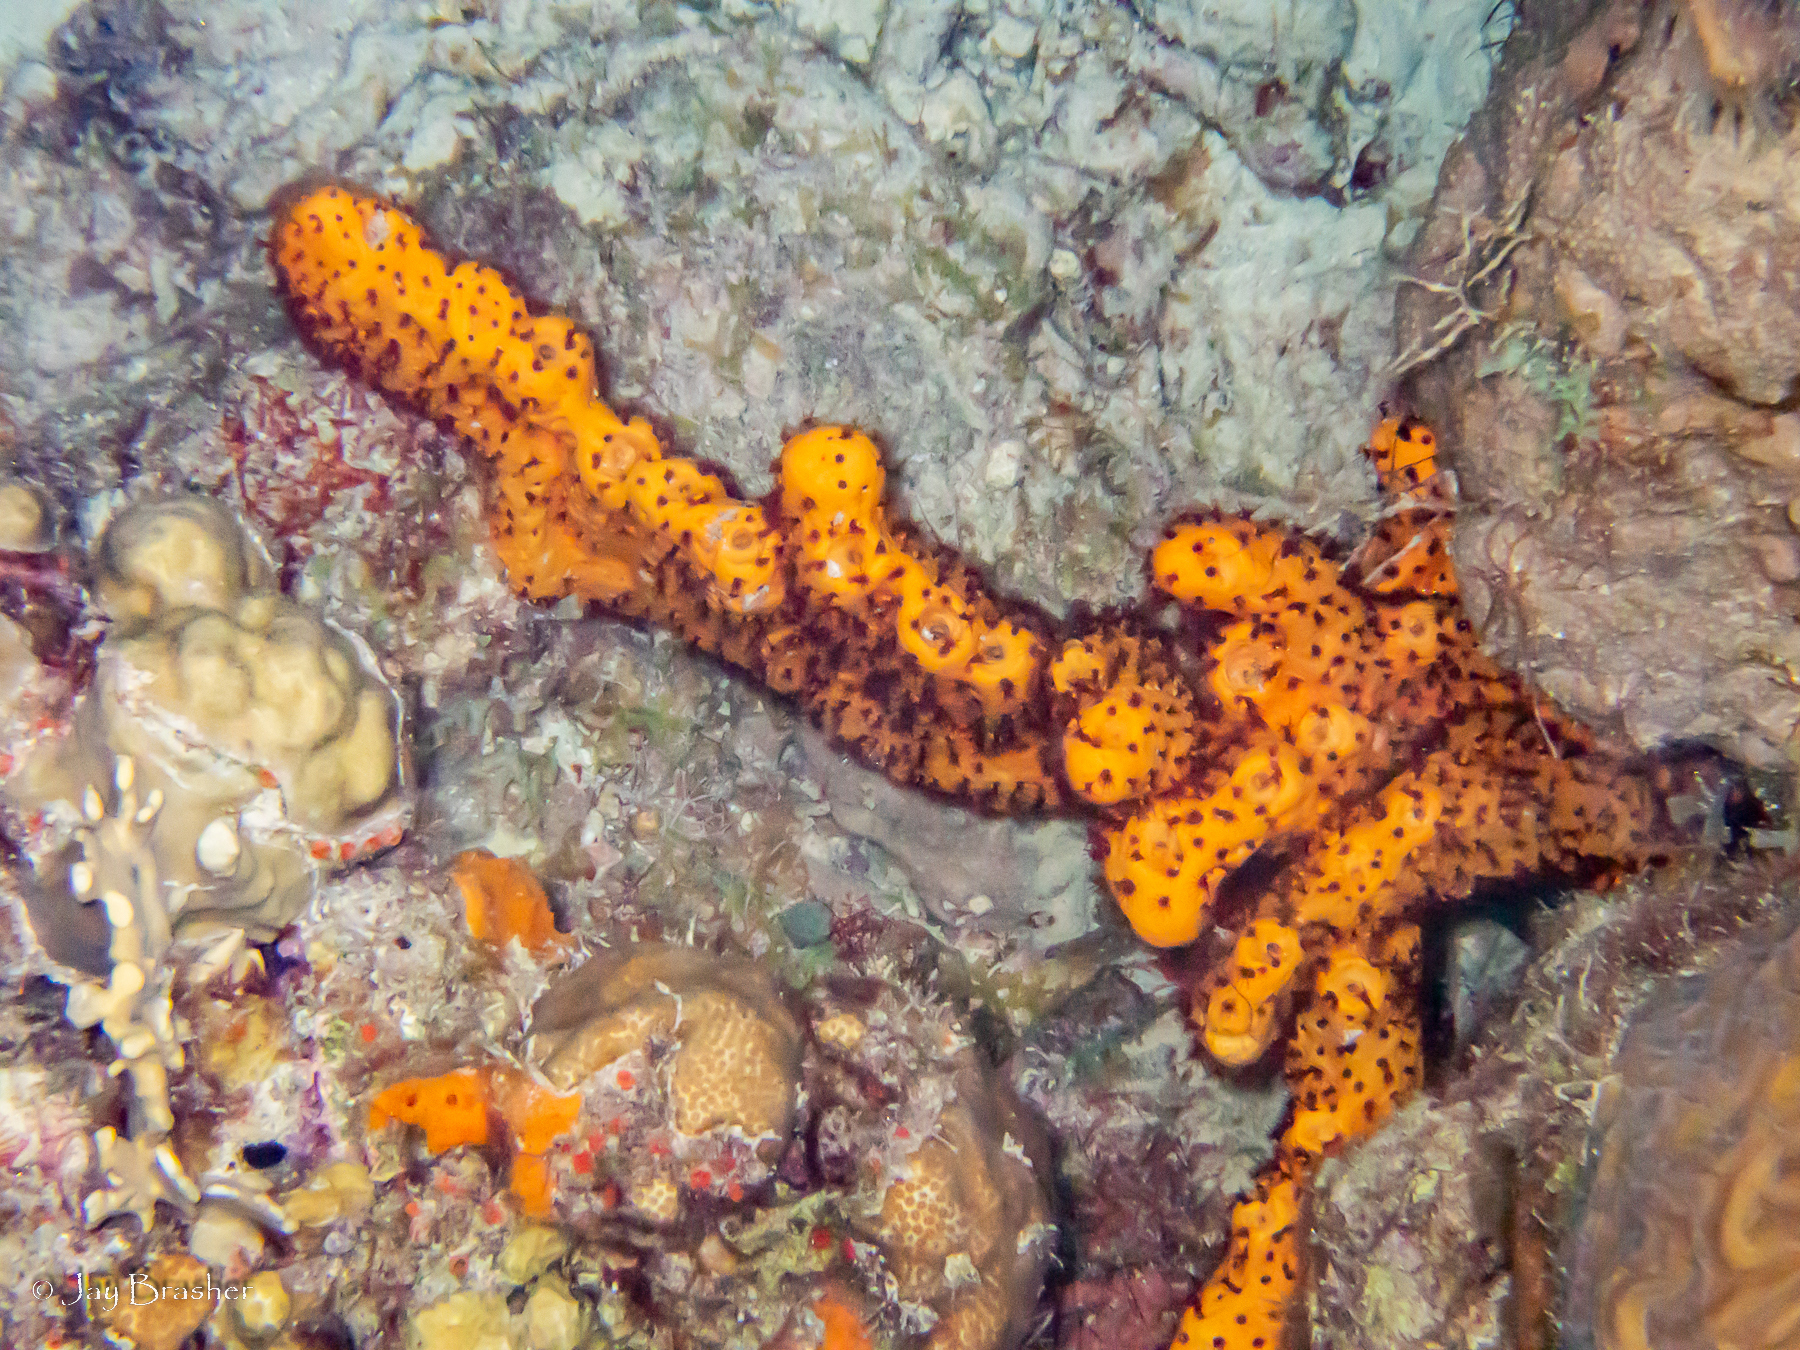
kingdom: Animalia
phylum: Porifera
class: Demospongiae
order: Agelasida
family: Agelasidae
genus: Agelas
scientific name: Agelas conifera
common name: Brown tube sponge
